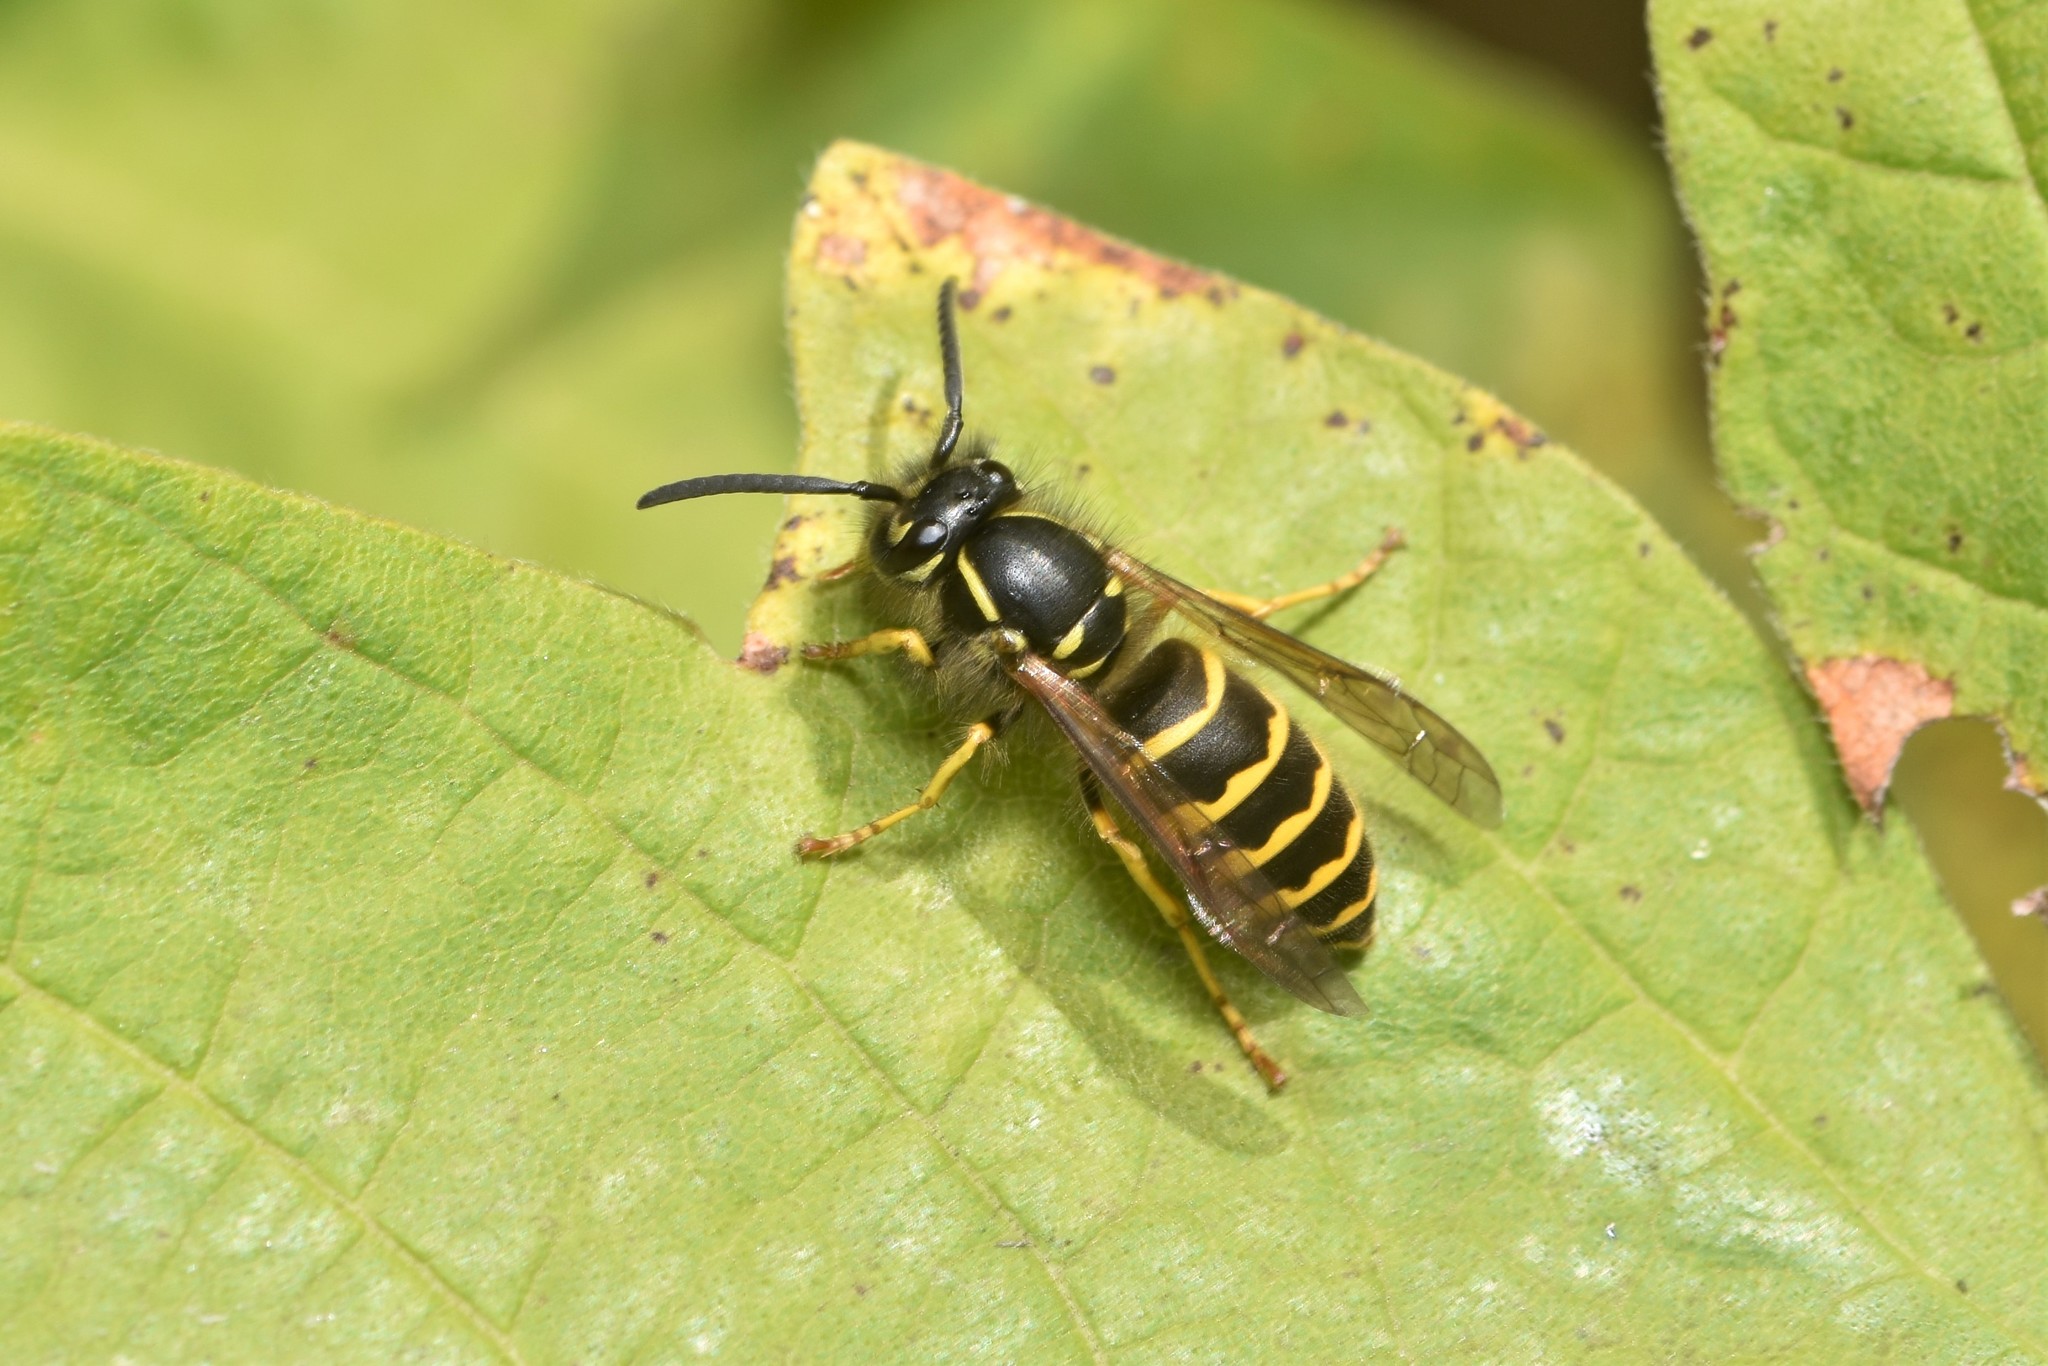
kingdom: Animalia
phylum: Arthropoda
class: Insecta
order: Hymenoptera
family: Vespidae
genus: Vespula
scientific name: Vespula alascensis
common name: Alaska yellowjacket
